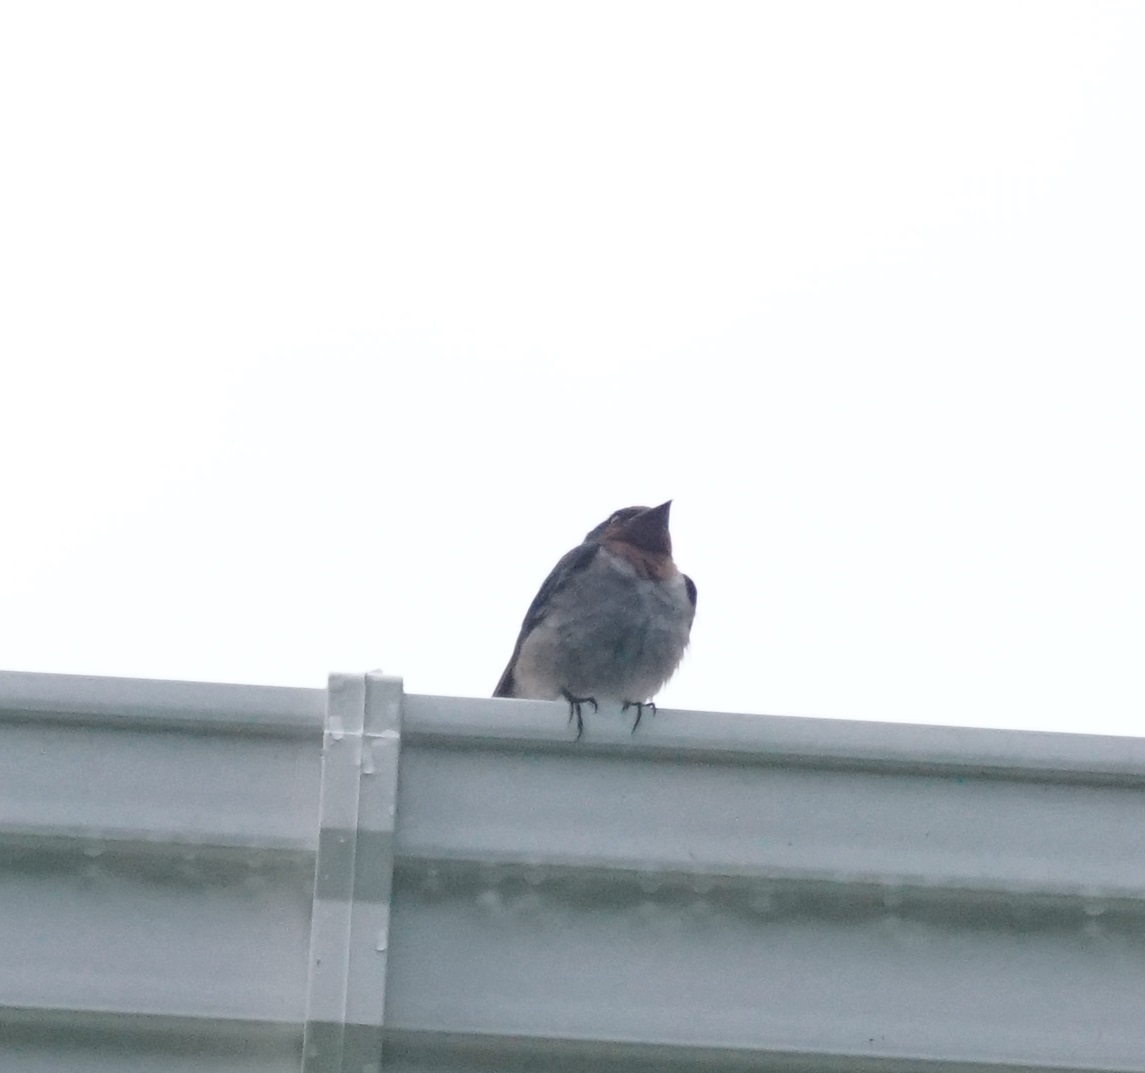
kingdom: Animalia
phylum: Chordata
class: Aves
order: Passeriformes
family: Hirundinidae
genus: Hirundo
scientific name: Hirundo tahitica
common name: Pacific swallow
